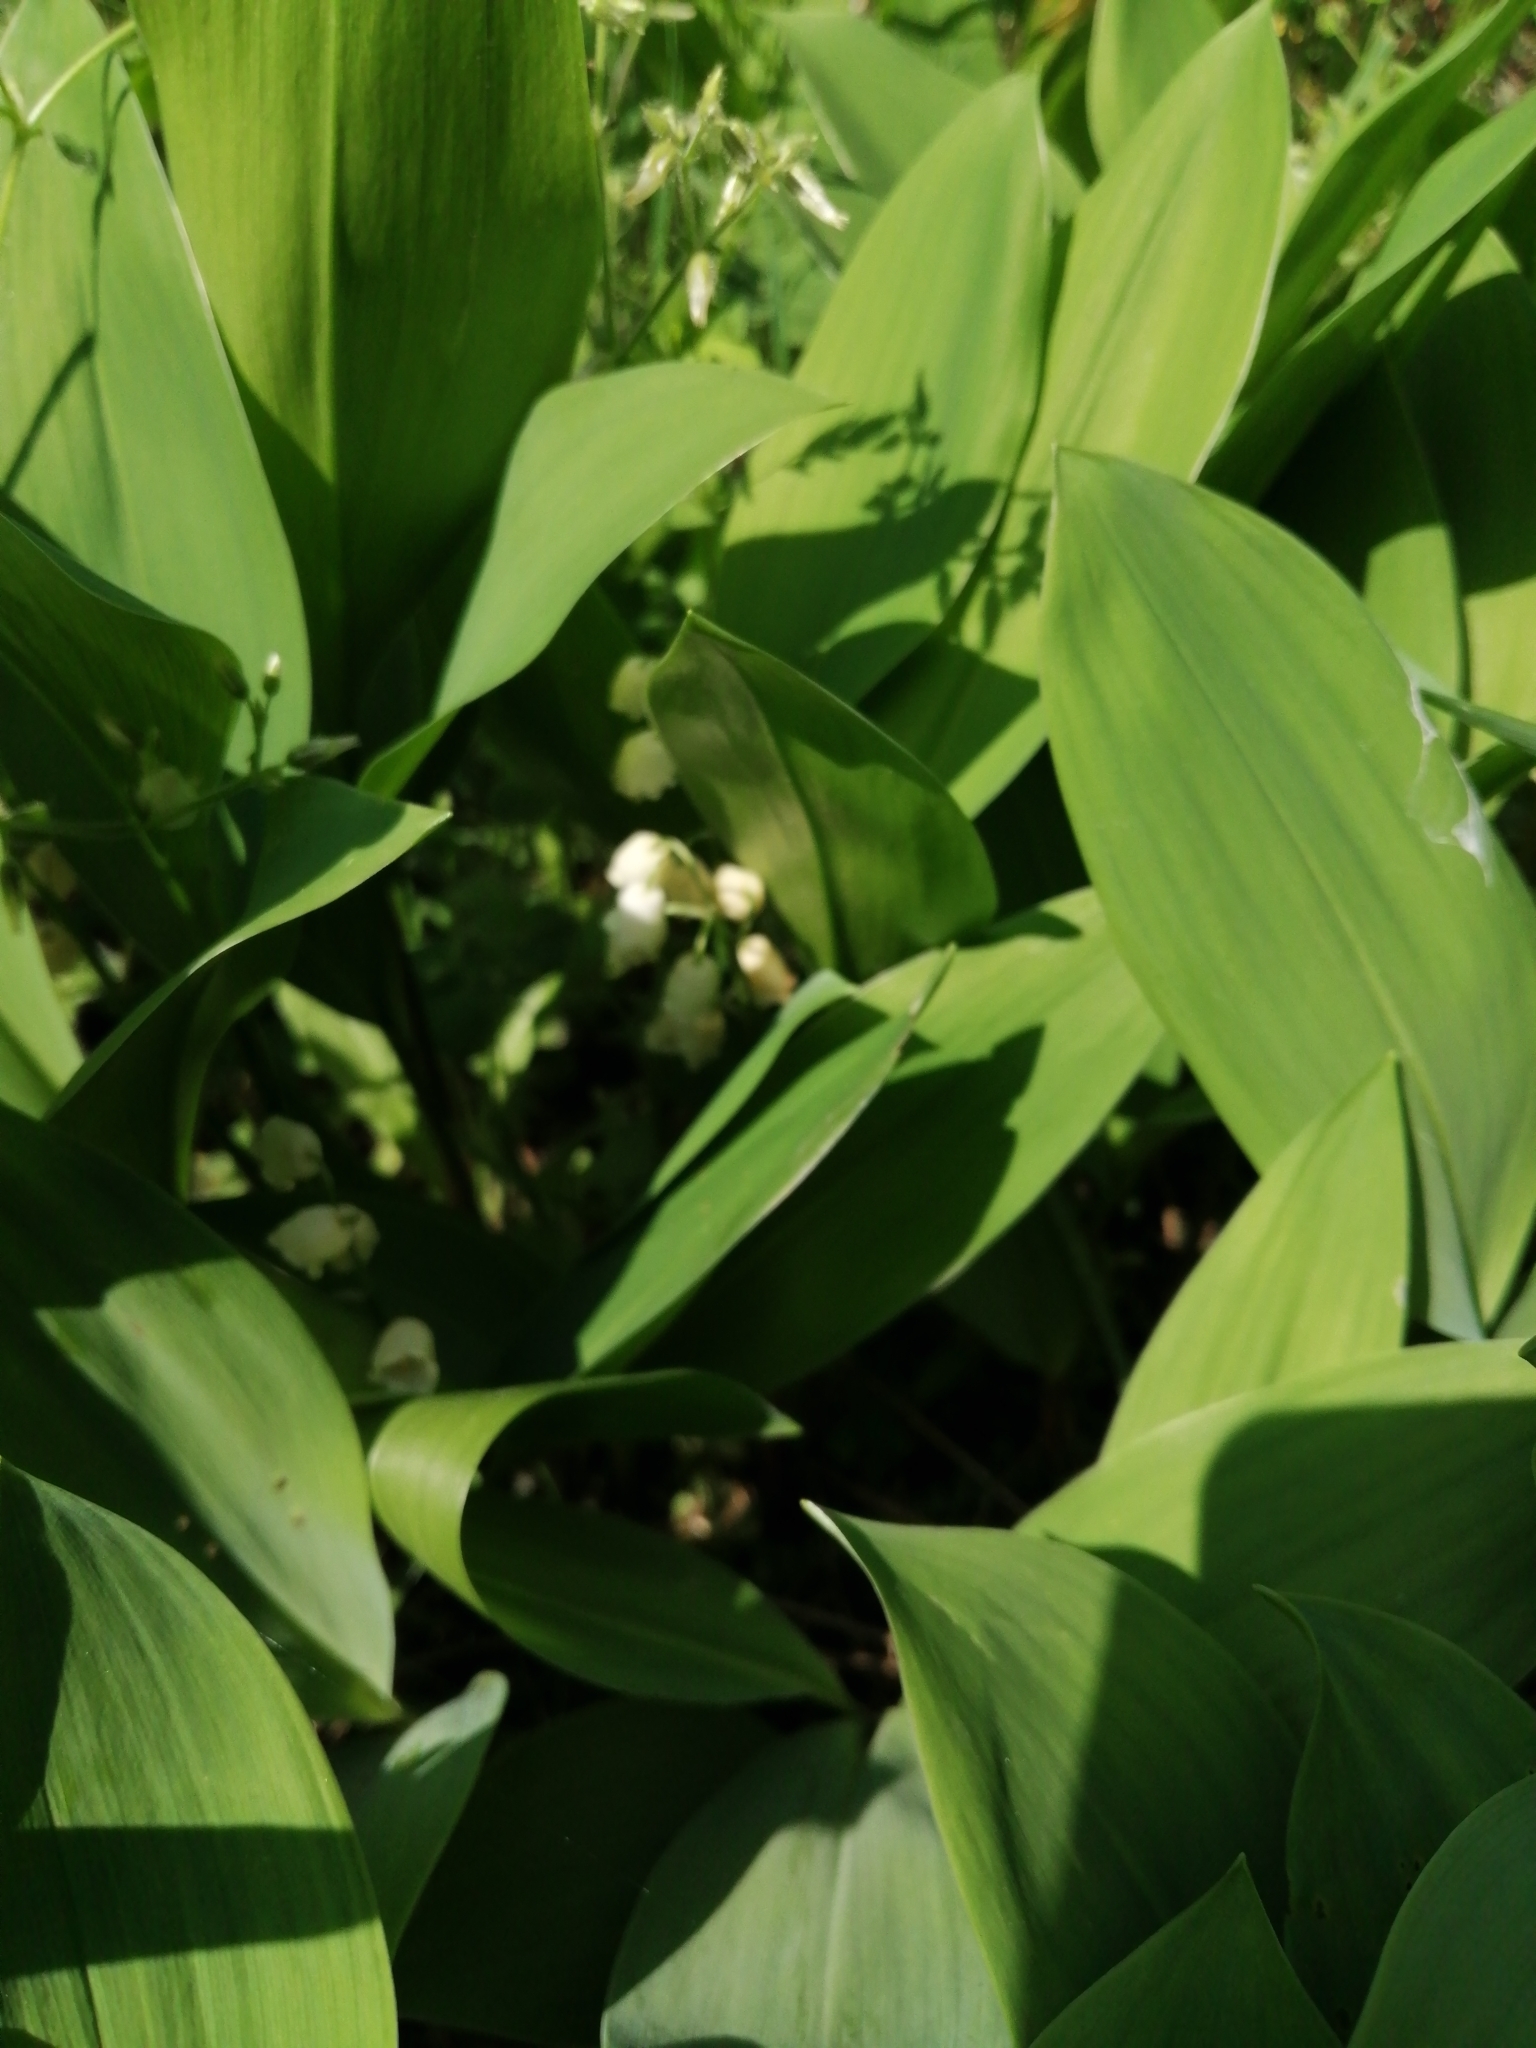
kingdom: Plantae
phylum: Tracheophyta
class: Liliopsida
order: Asparagales
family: Asparagaceae
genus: Convallaria
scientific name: Convallaria majalis
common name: Lily-of-the-valley
